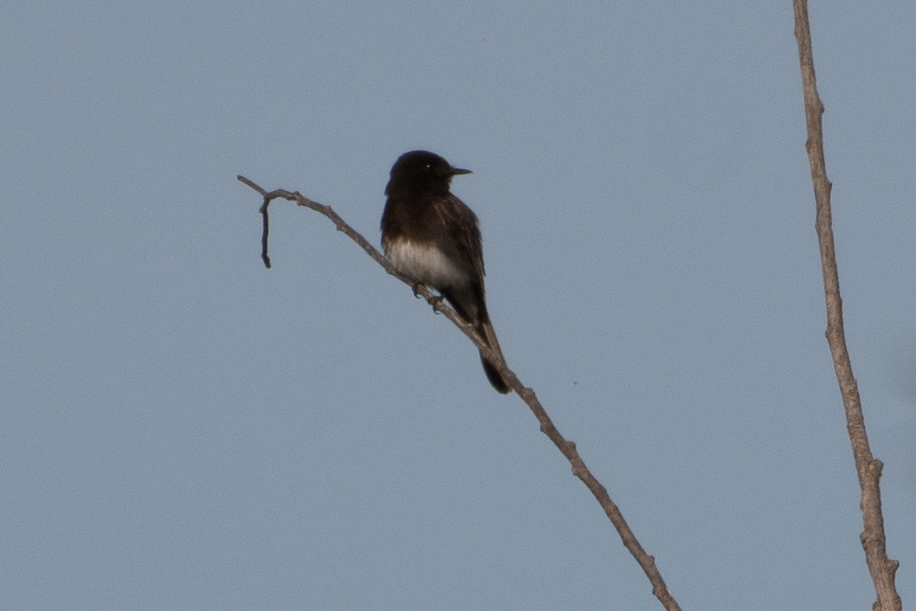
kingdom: Animalia
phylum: Chordata
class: Aves
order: Passeriformes
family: Tyrannidae
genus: Sayornis
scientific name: Sayornis nigricans
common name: Black phoebe
